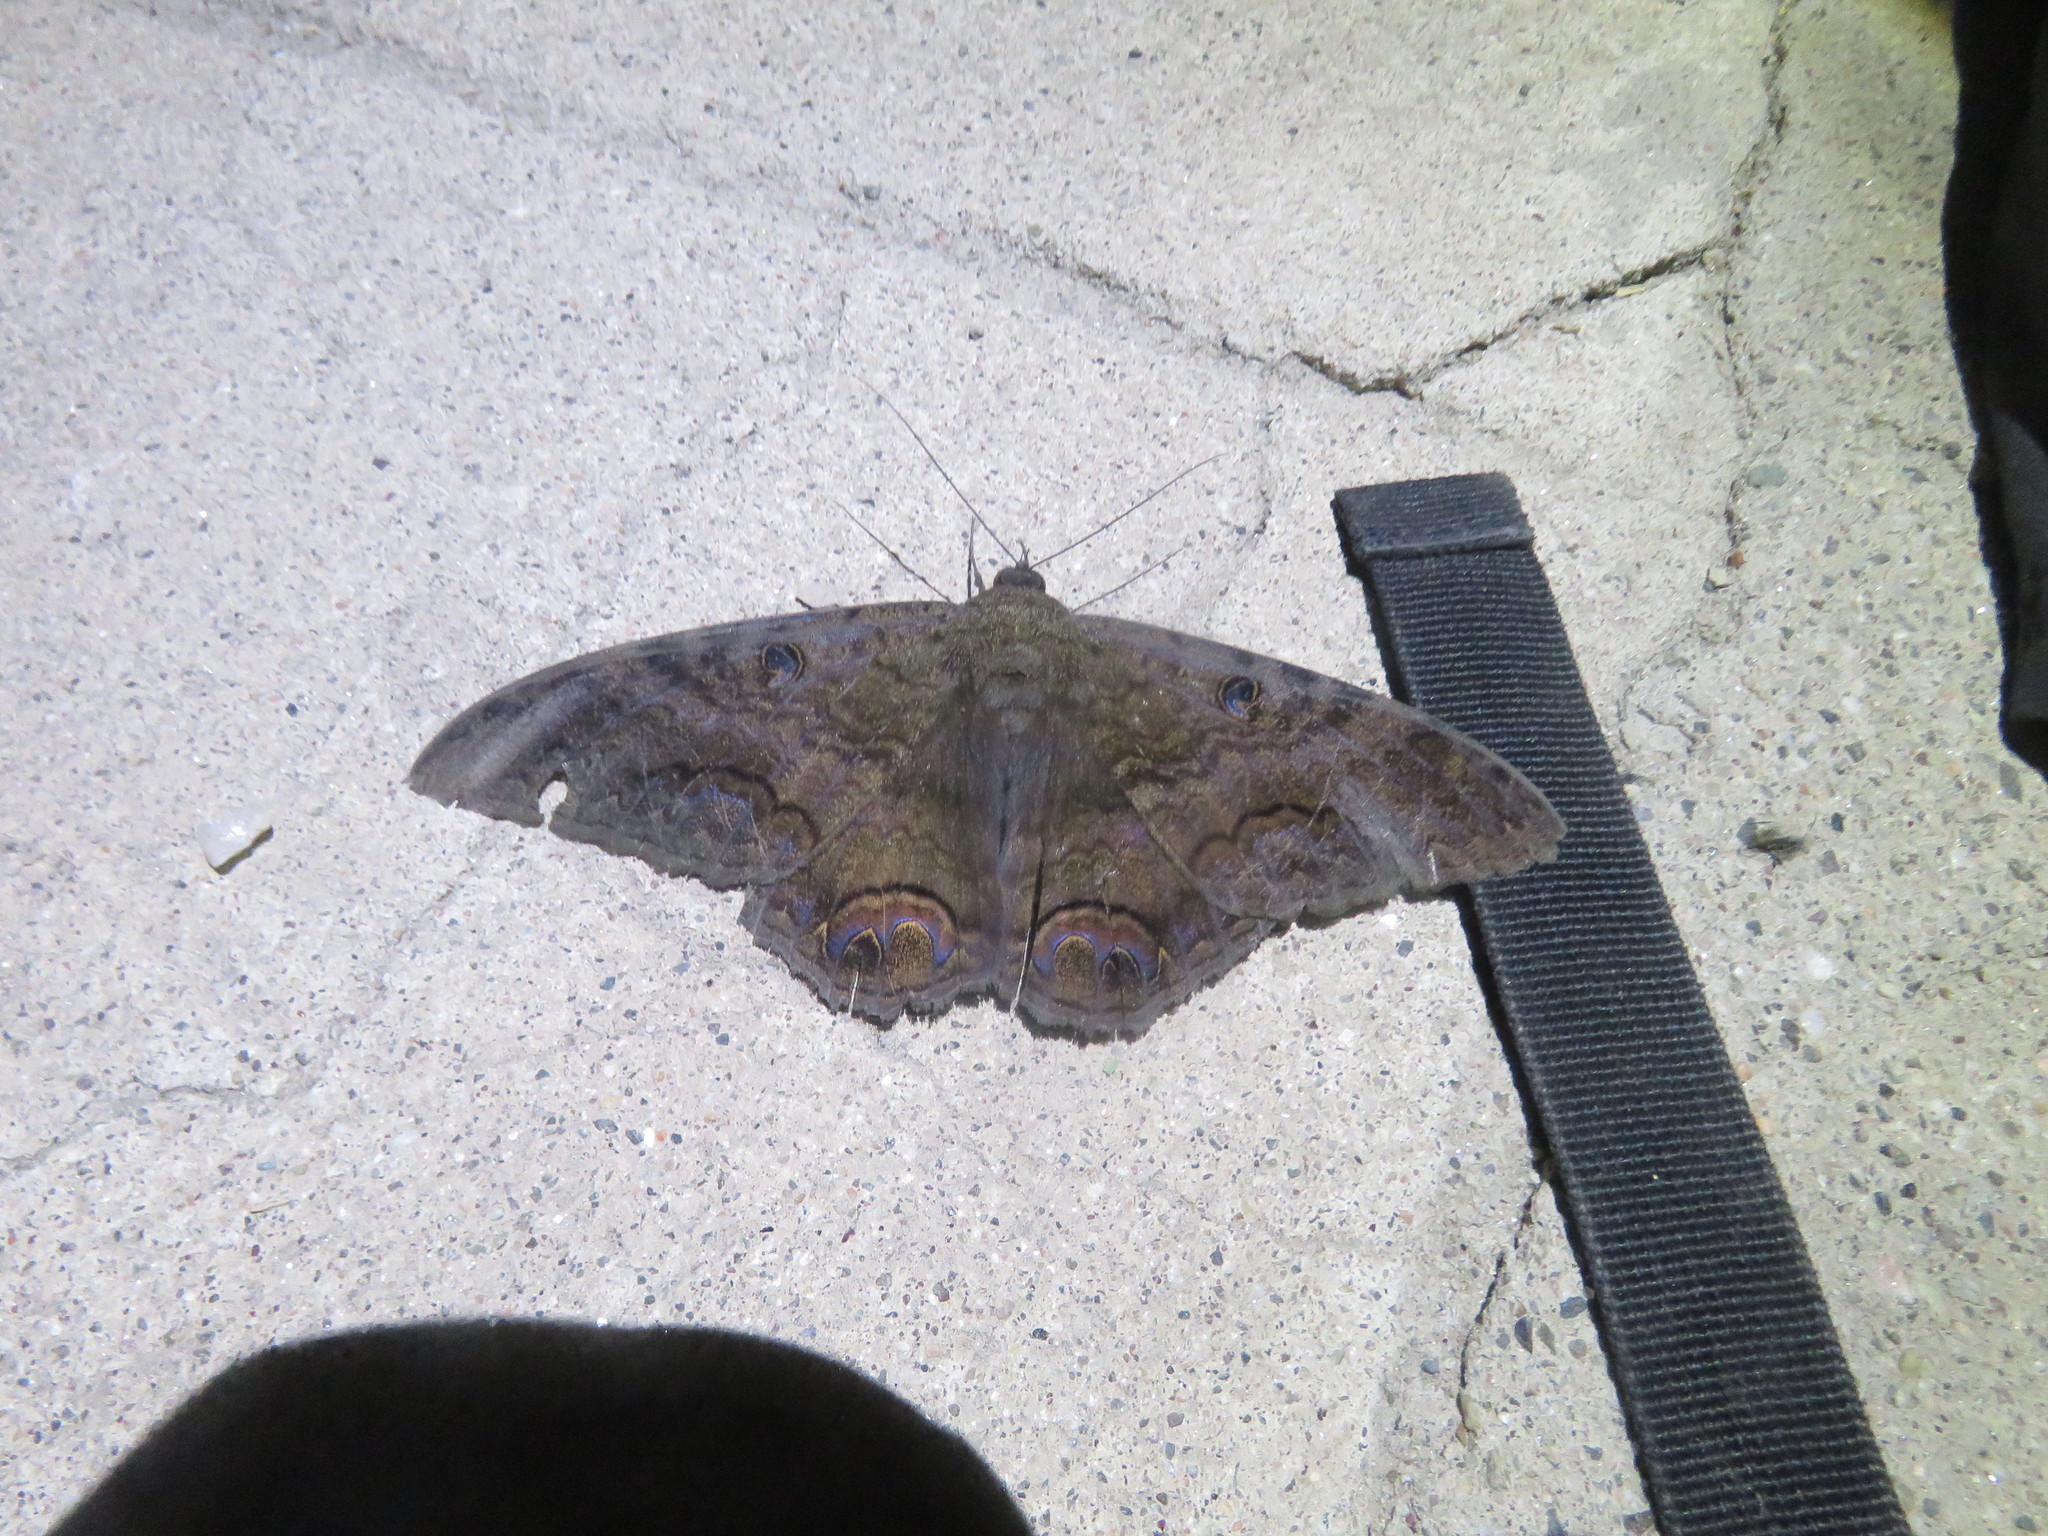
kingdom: Animalia
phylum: Arthropoda
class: Insecta
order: Lepidoptera
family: Erebidae
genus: Ascalapha
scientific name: Ascalapha odorata
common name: Black witch
